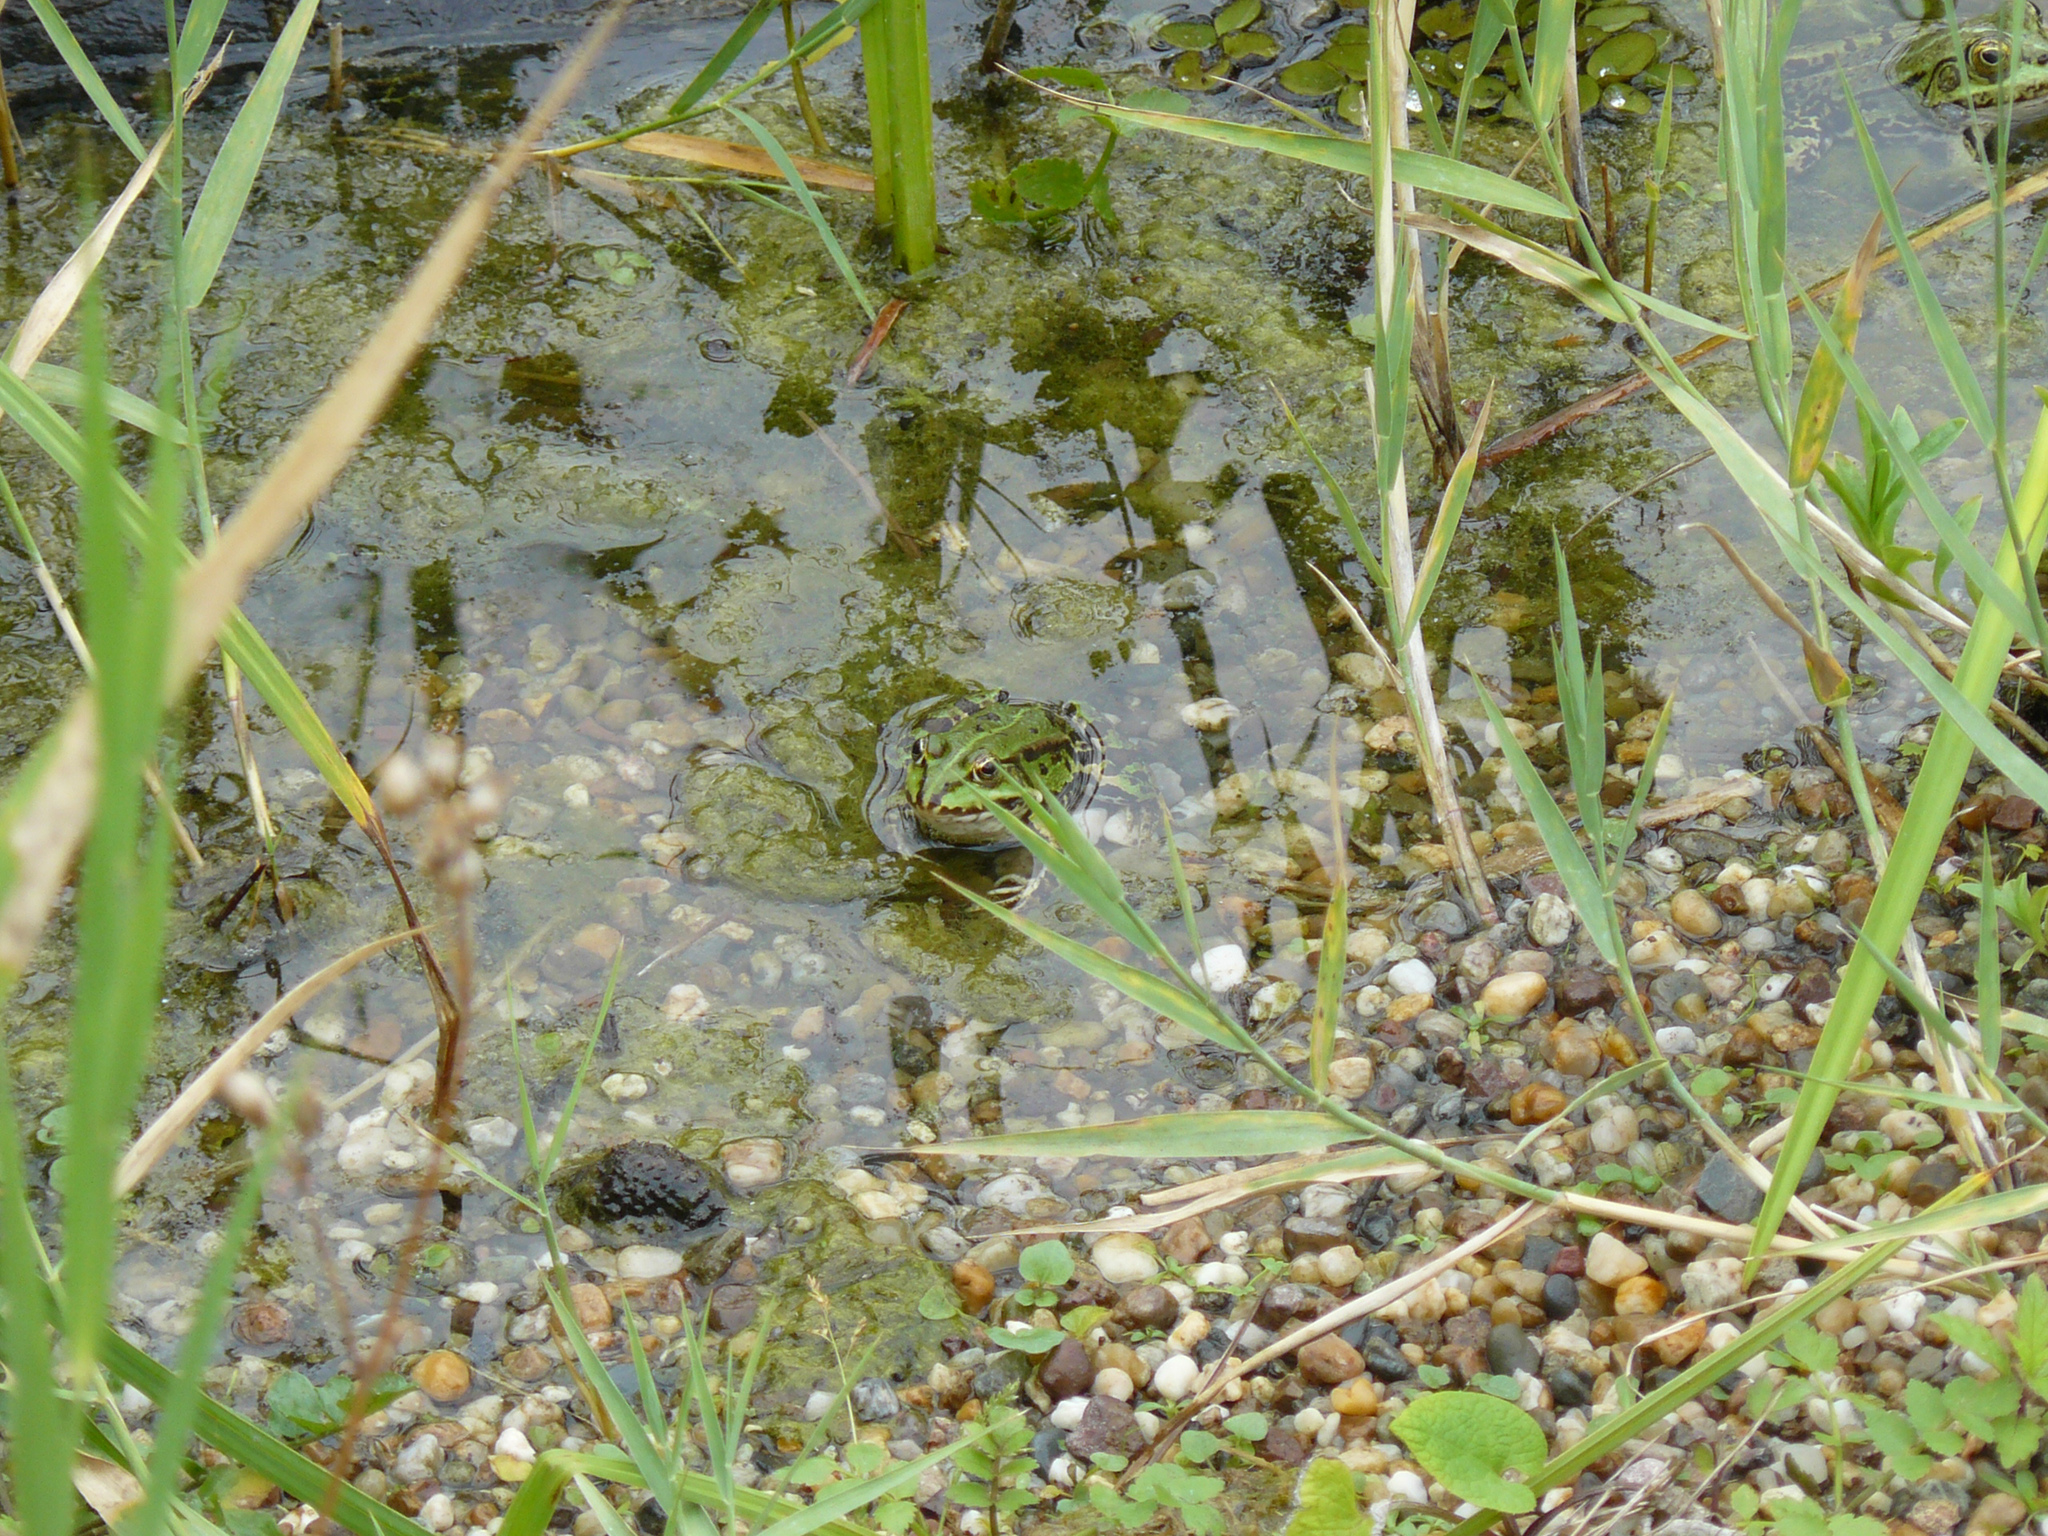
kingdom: Animalia
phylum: Chordata
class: Amphibia
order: Anura
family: Ranidae
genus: Pelophylax
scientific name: Pelophylax
